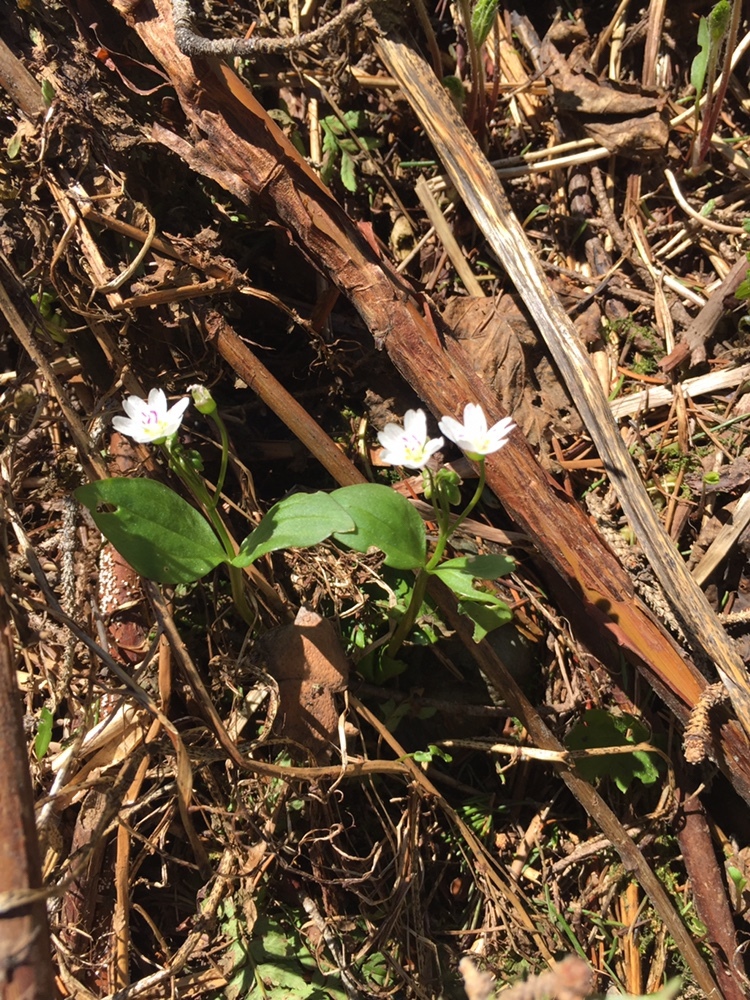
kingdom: Plantae
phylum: Tracheophyta
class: Magnoliopsida
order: Caryophyllales
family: Montiaceae
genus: Claytonia
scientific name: Claytonia lanceolata
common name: Western spring-beauty
